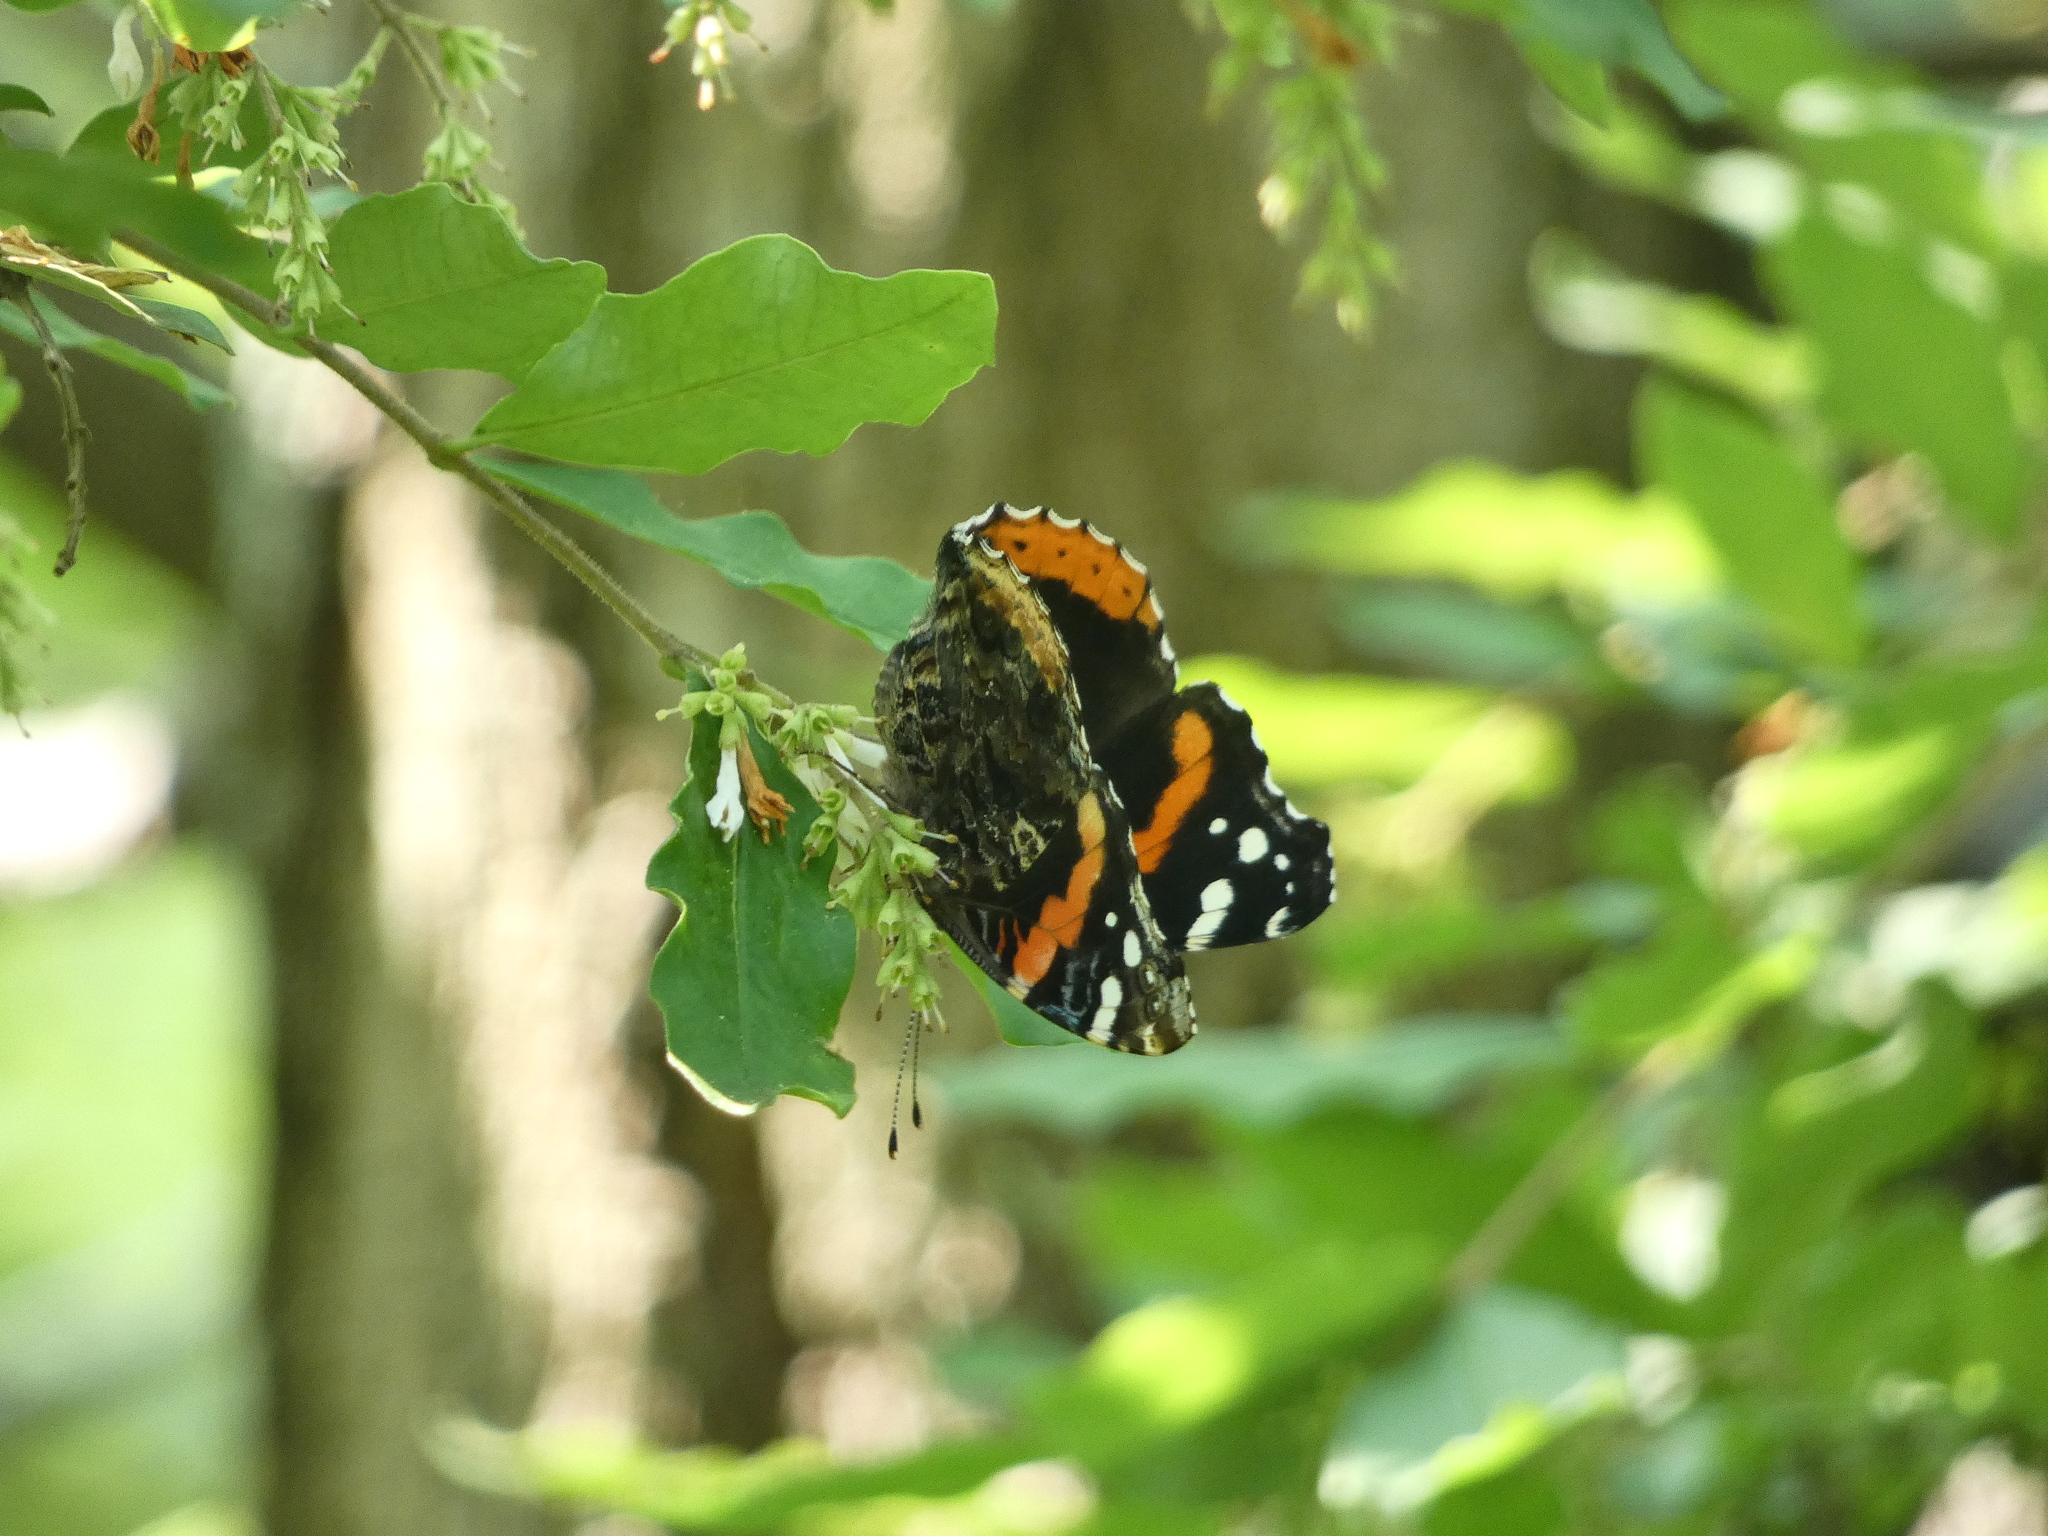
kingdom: Animalia
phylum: Arthropoda
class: Insecta
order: Lepidoptera
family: Nymphalidae
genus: Vanessa
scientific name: Vanessa atalanta
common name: Red admiral
